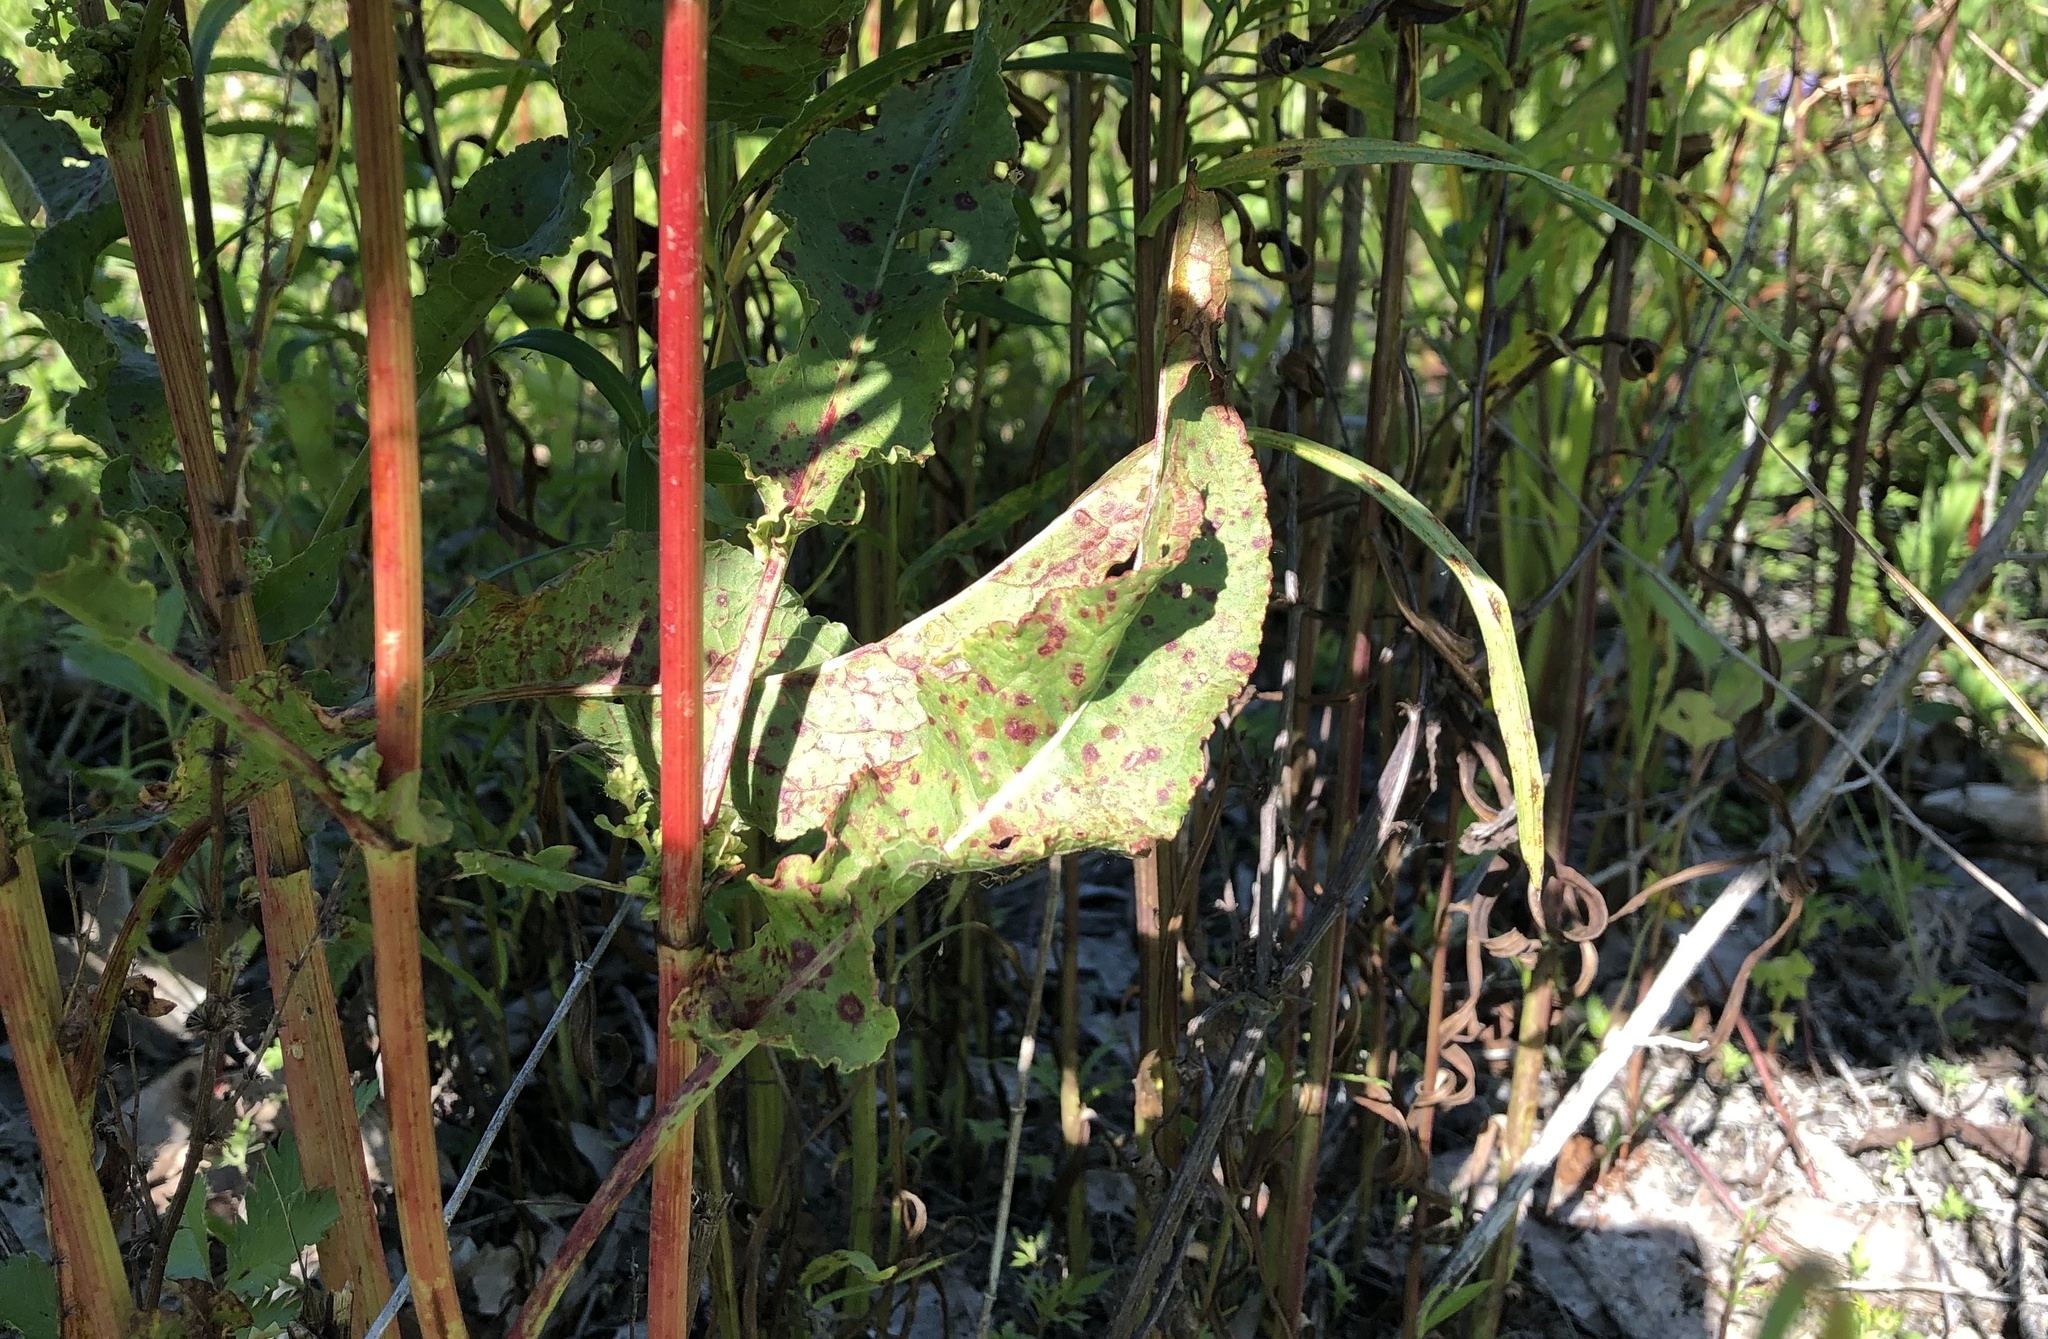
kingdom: Fungi
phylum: Ascomycota
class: Dothideomycetes
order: Mycosphaerellales
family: Mycosphaerellaceae
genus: Ramularia
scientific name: Ramularia rubella
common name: Red dock spot
